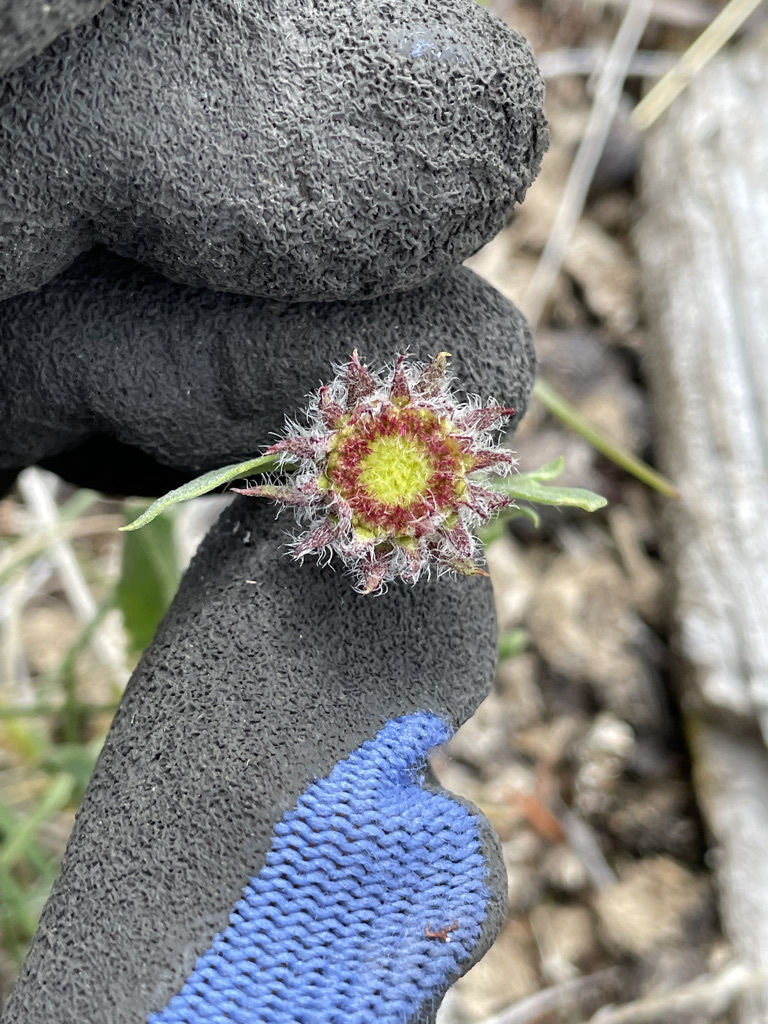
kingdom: Plantae
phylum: Tracheophyta
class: Magnoliopsida
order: Asterales
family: Asteraceae
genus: Gaillardia
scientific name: Gaillardia aristata
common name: Blanket-flower
